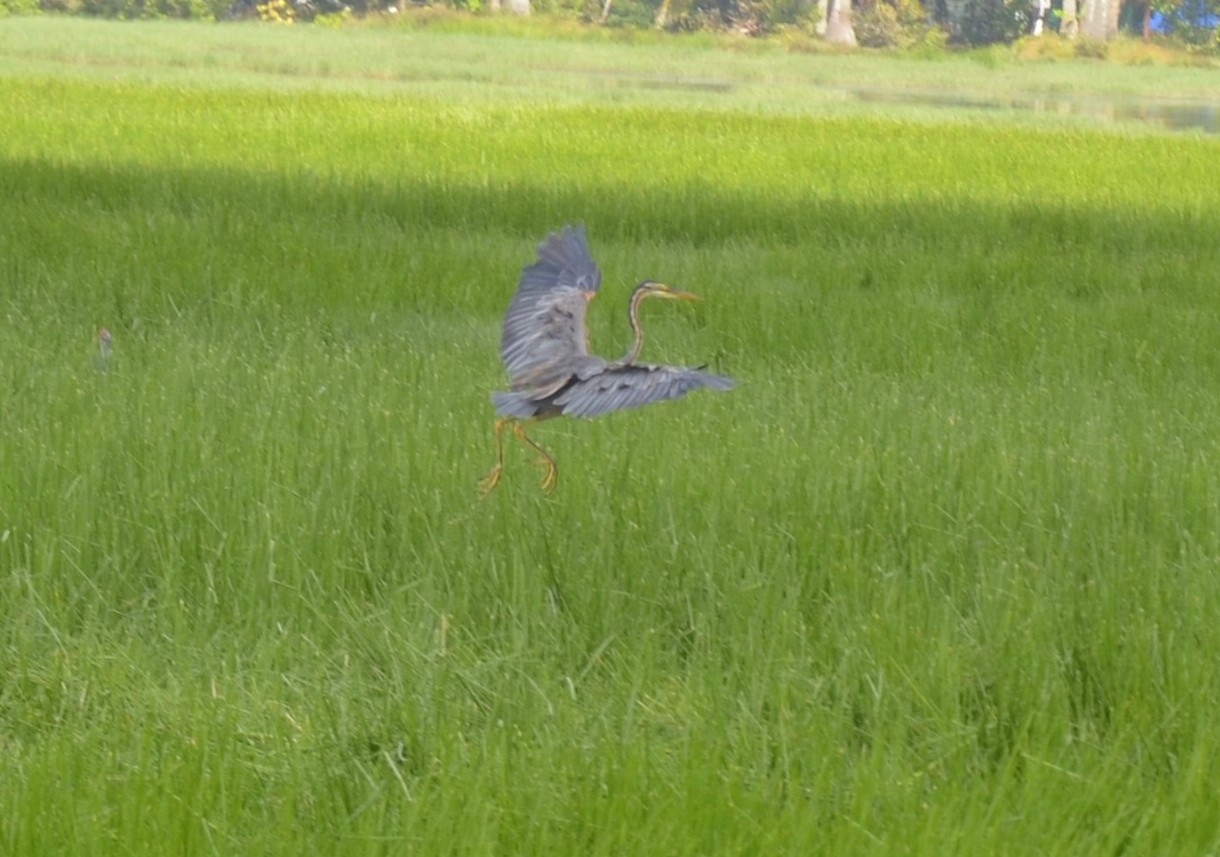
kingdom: Animalia
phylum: Chordata
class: Aves
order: Pelecaniformes
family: Ardeidae
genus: Ardea
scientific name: Ardea purpurea
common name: Purple heron
